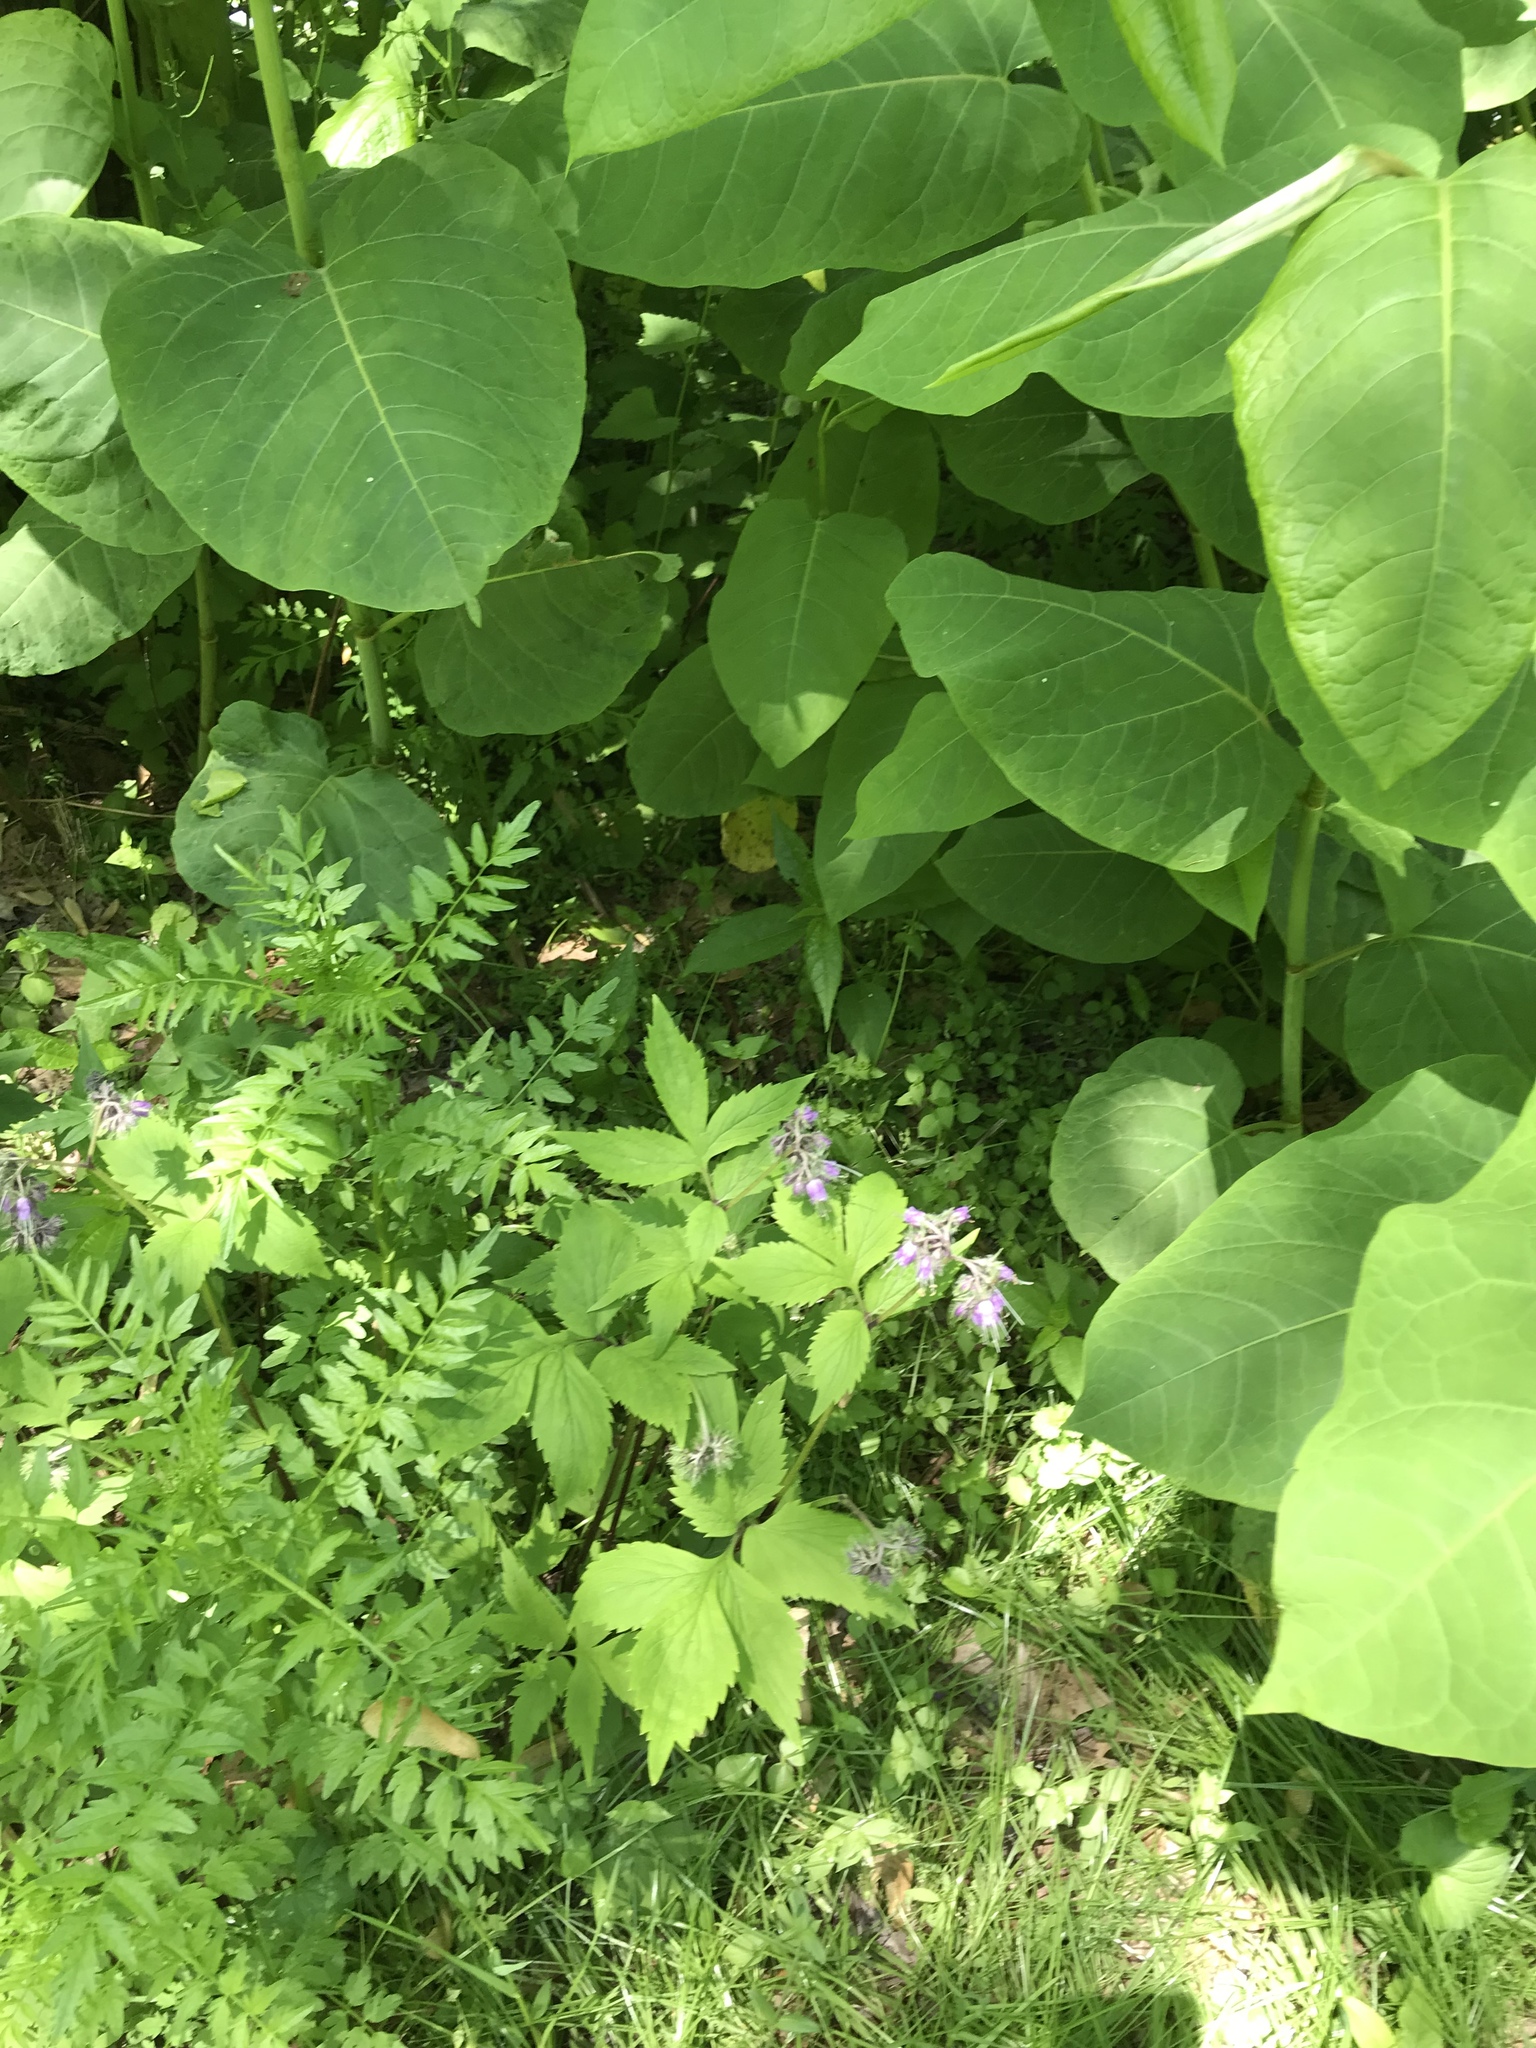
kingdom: Plantae
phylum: Tracheophyta
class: Magnoliopsida
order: Boraginales
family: Hydrophyllaceae
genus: Hydrophyllum
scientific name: Hydrophyllum virginianum
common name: Virginia waterleaf
